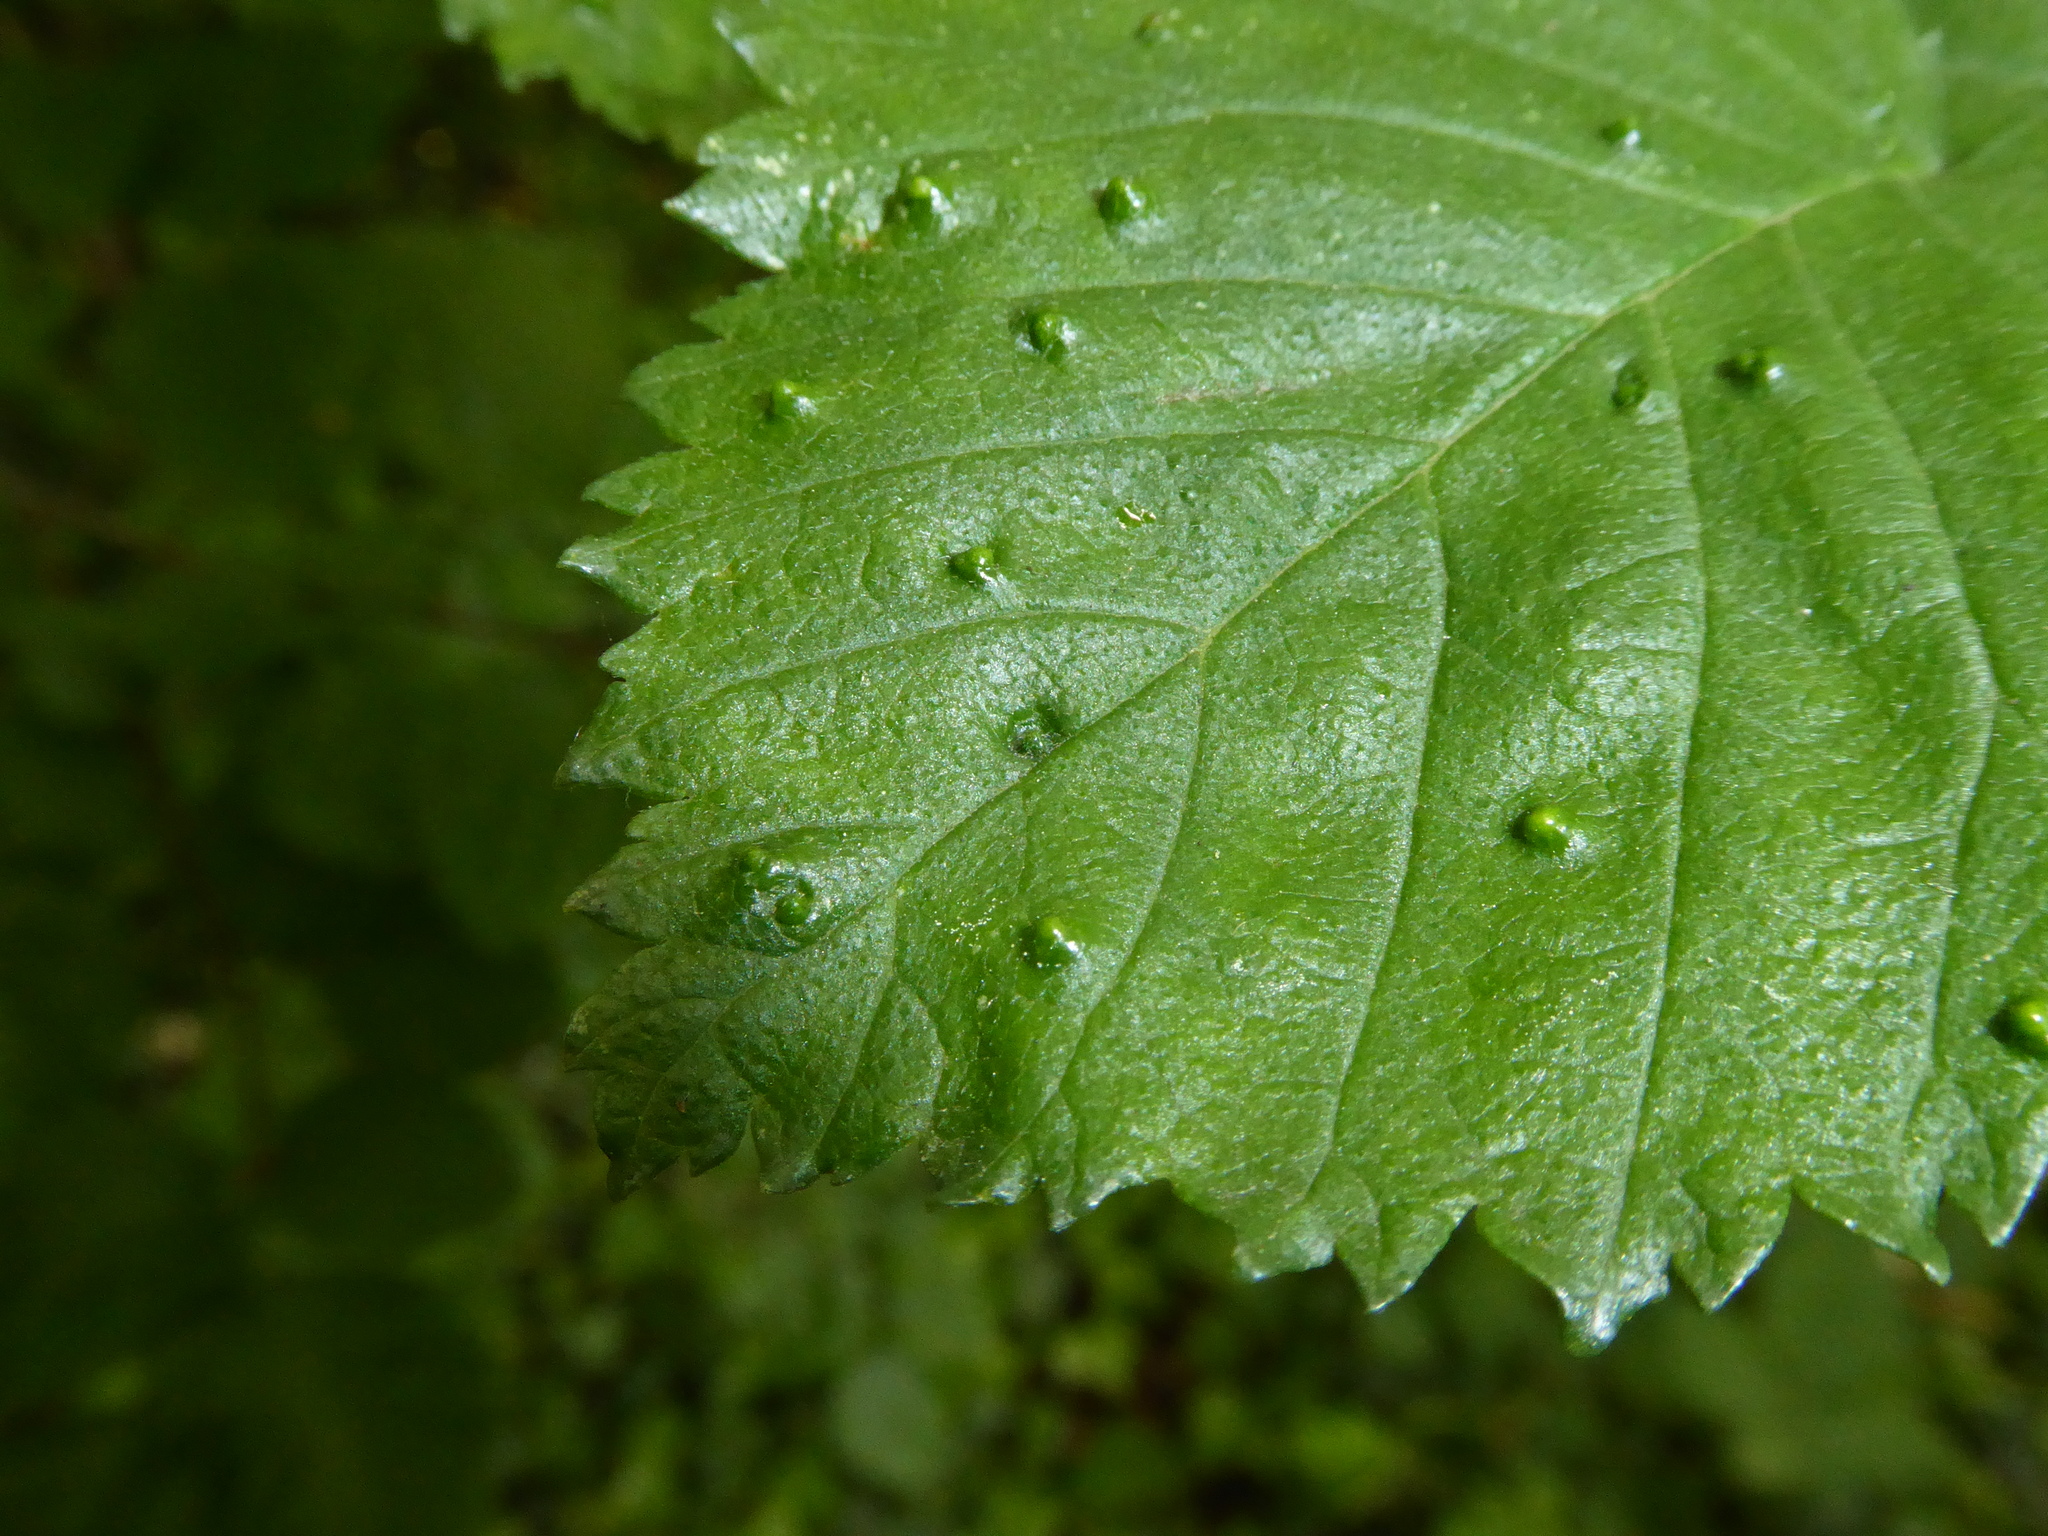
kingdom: Animalia
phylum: Arthropoda
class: Arachnida
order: Trombidiformes
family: Eriophyidae
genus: Aceria
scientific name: Aceria brevipunctata
